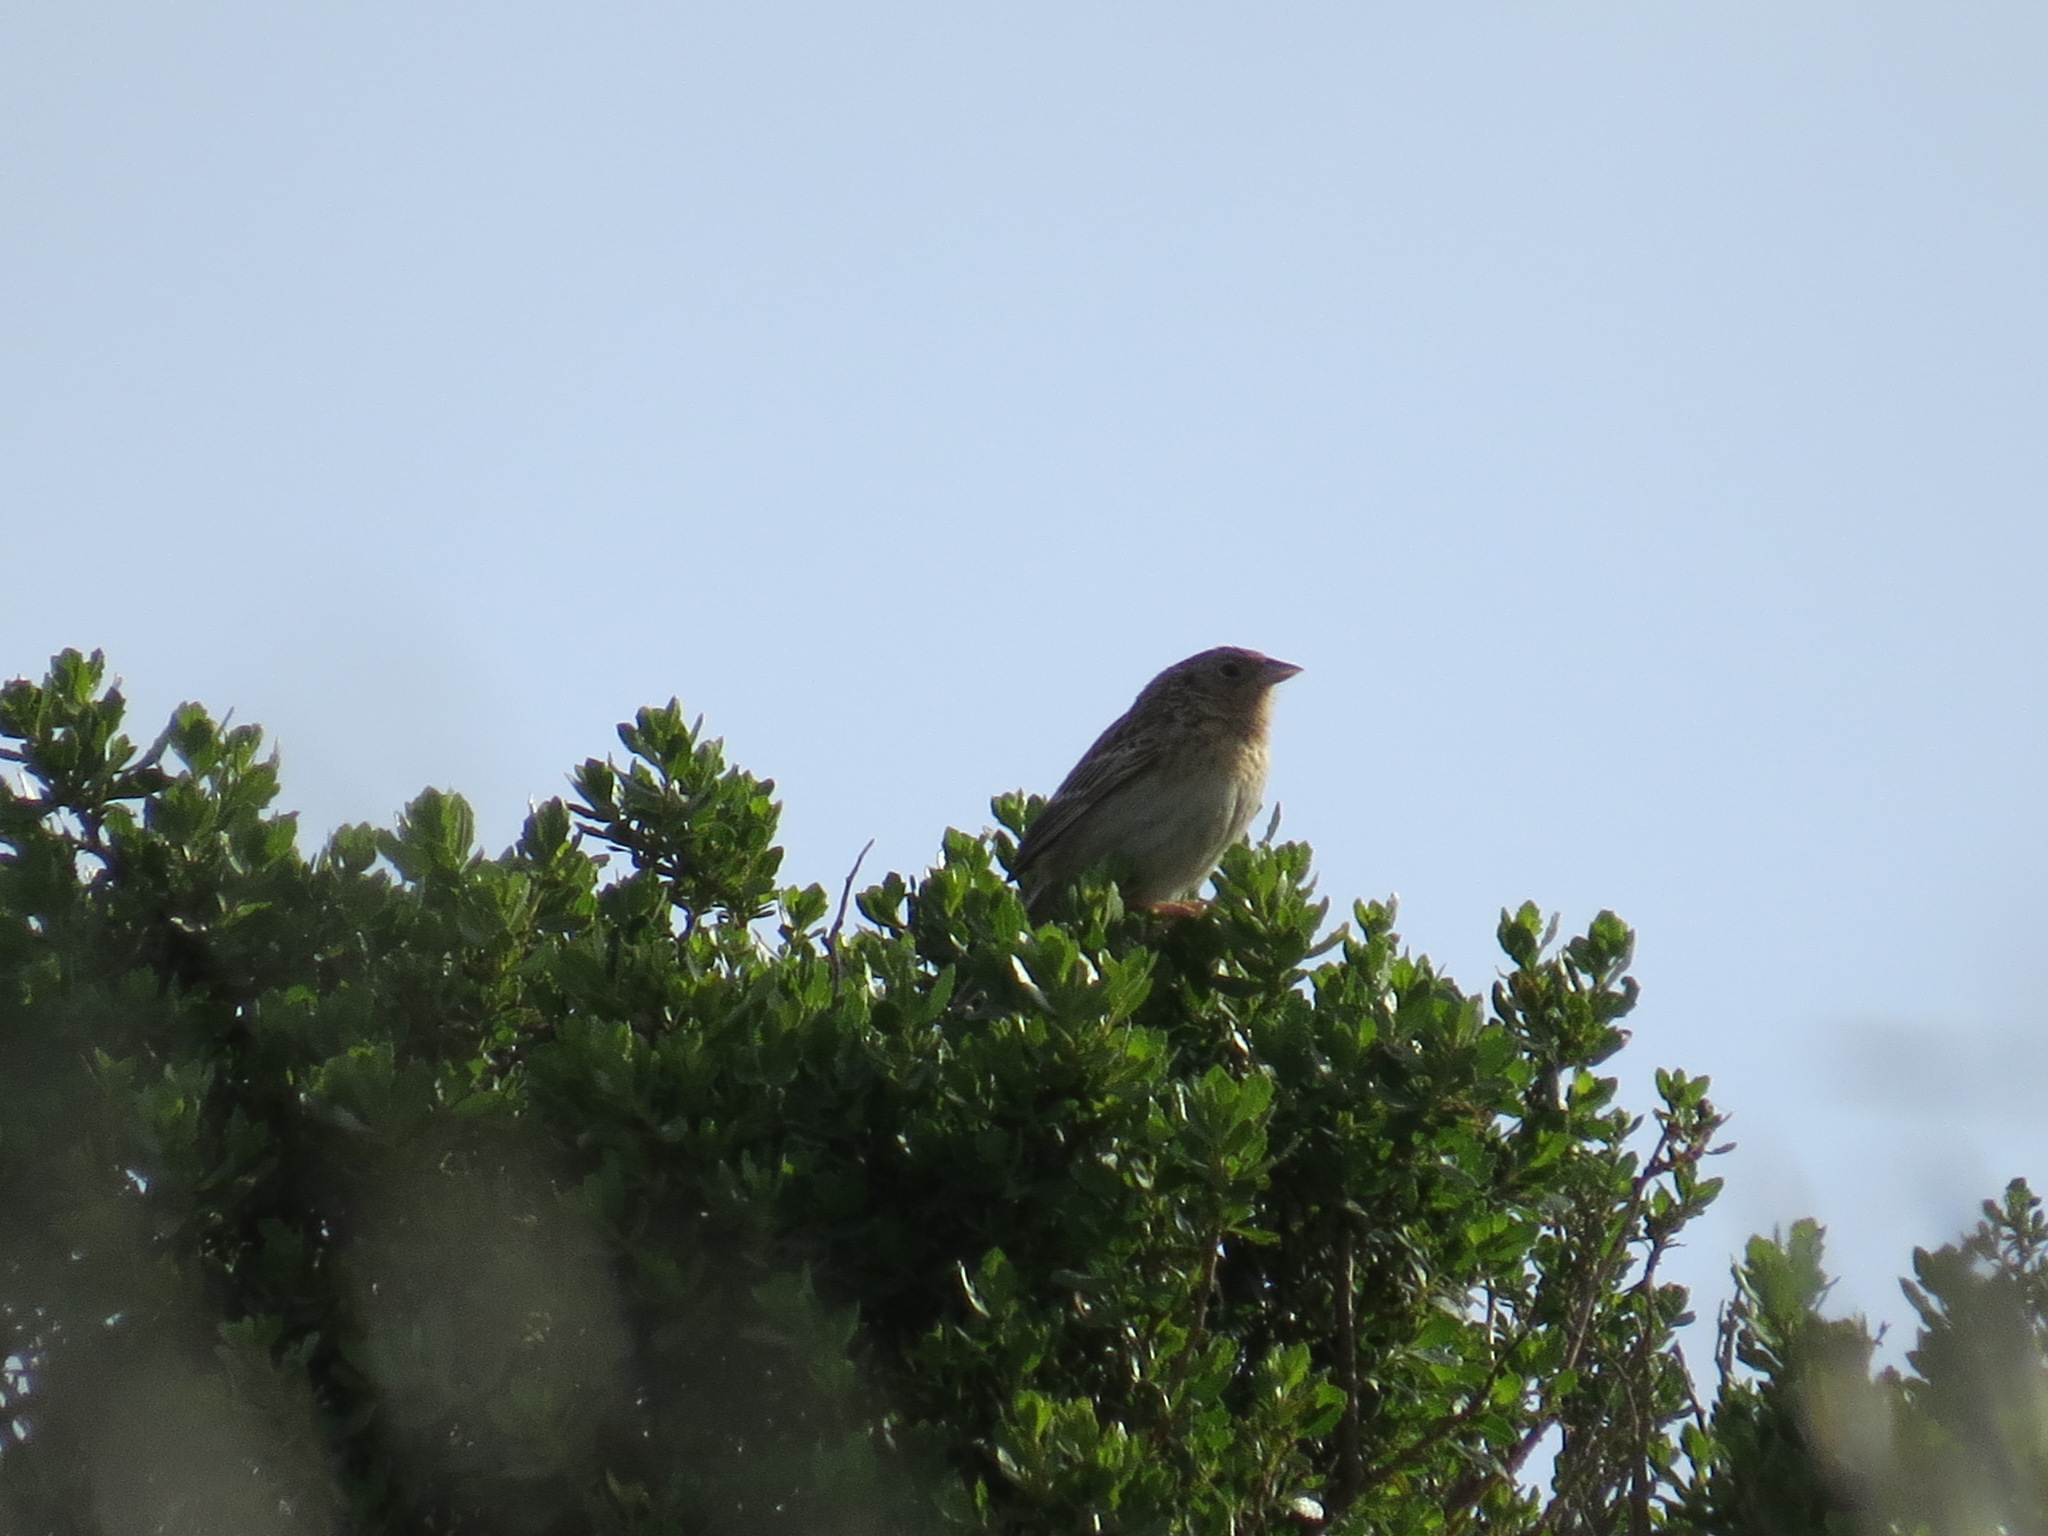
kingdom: Animalia
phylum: Chordata
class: Aves
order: Passeriformes
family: Passerellidae
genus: Ammodramus
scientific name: Ammodramus savannarum
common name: Grasshopper sparrow
